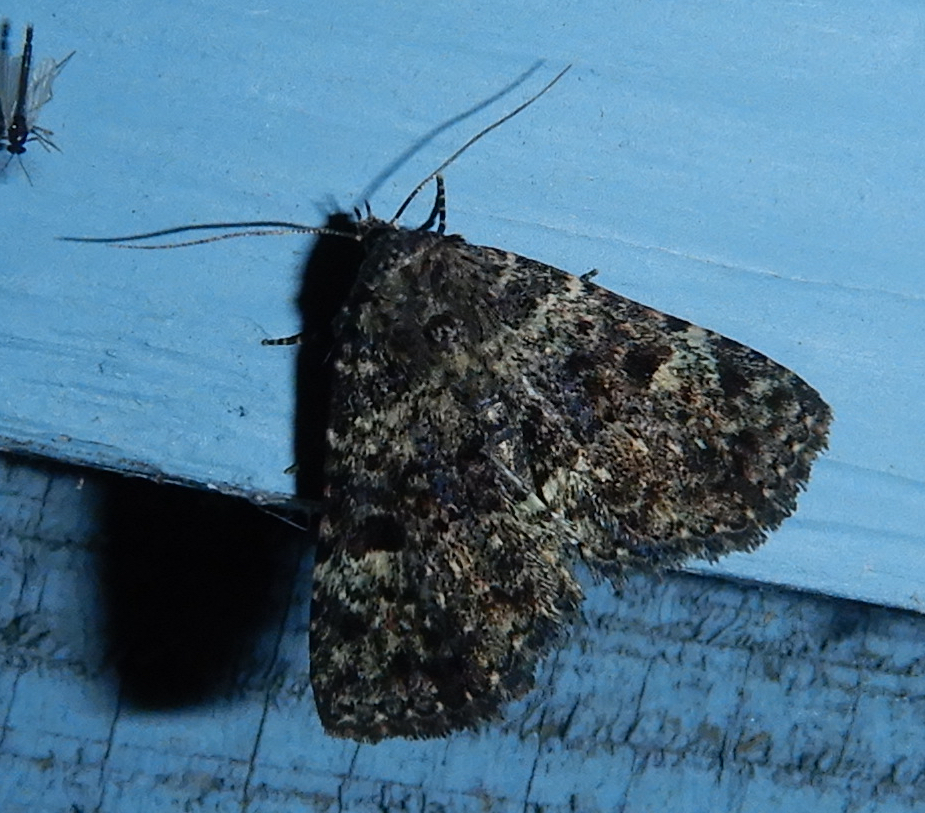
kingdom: Animalia
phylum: Arthropoda
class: Insecta
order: Lepidoptera
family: Erebidae
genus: Metalectra
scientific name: Metalectra discalis
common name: Common fungus moth
